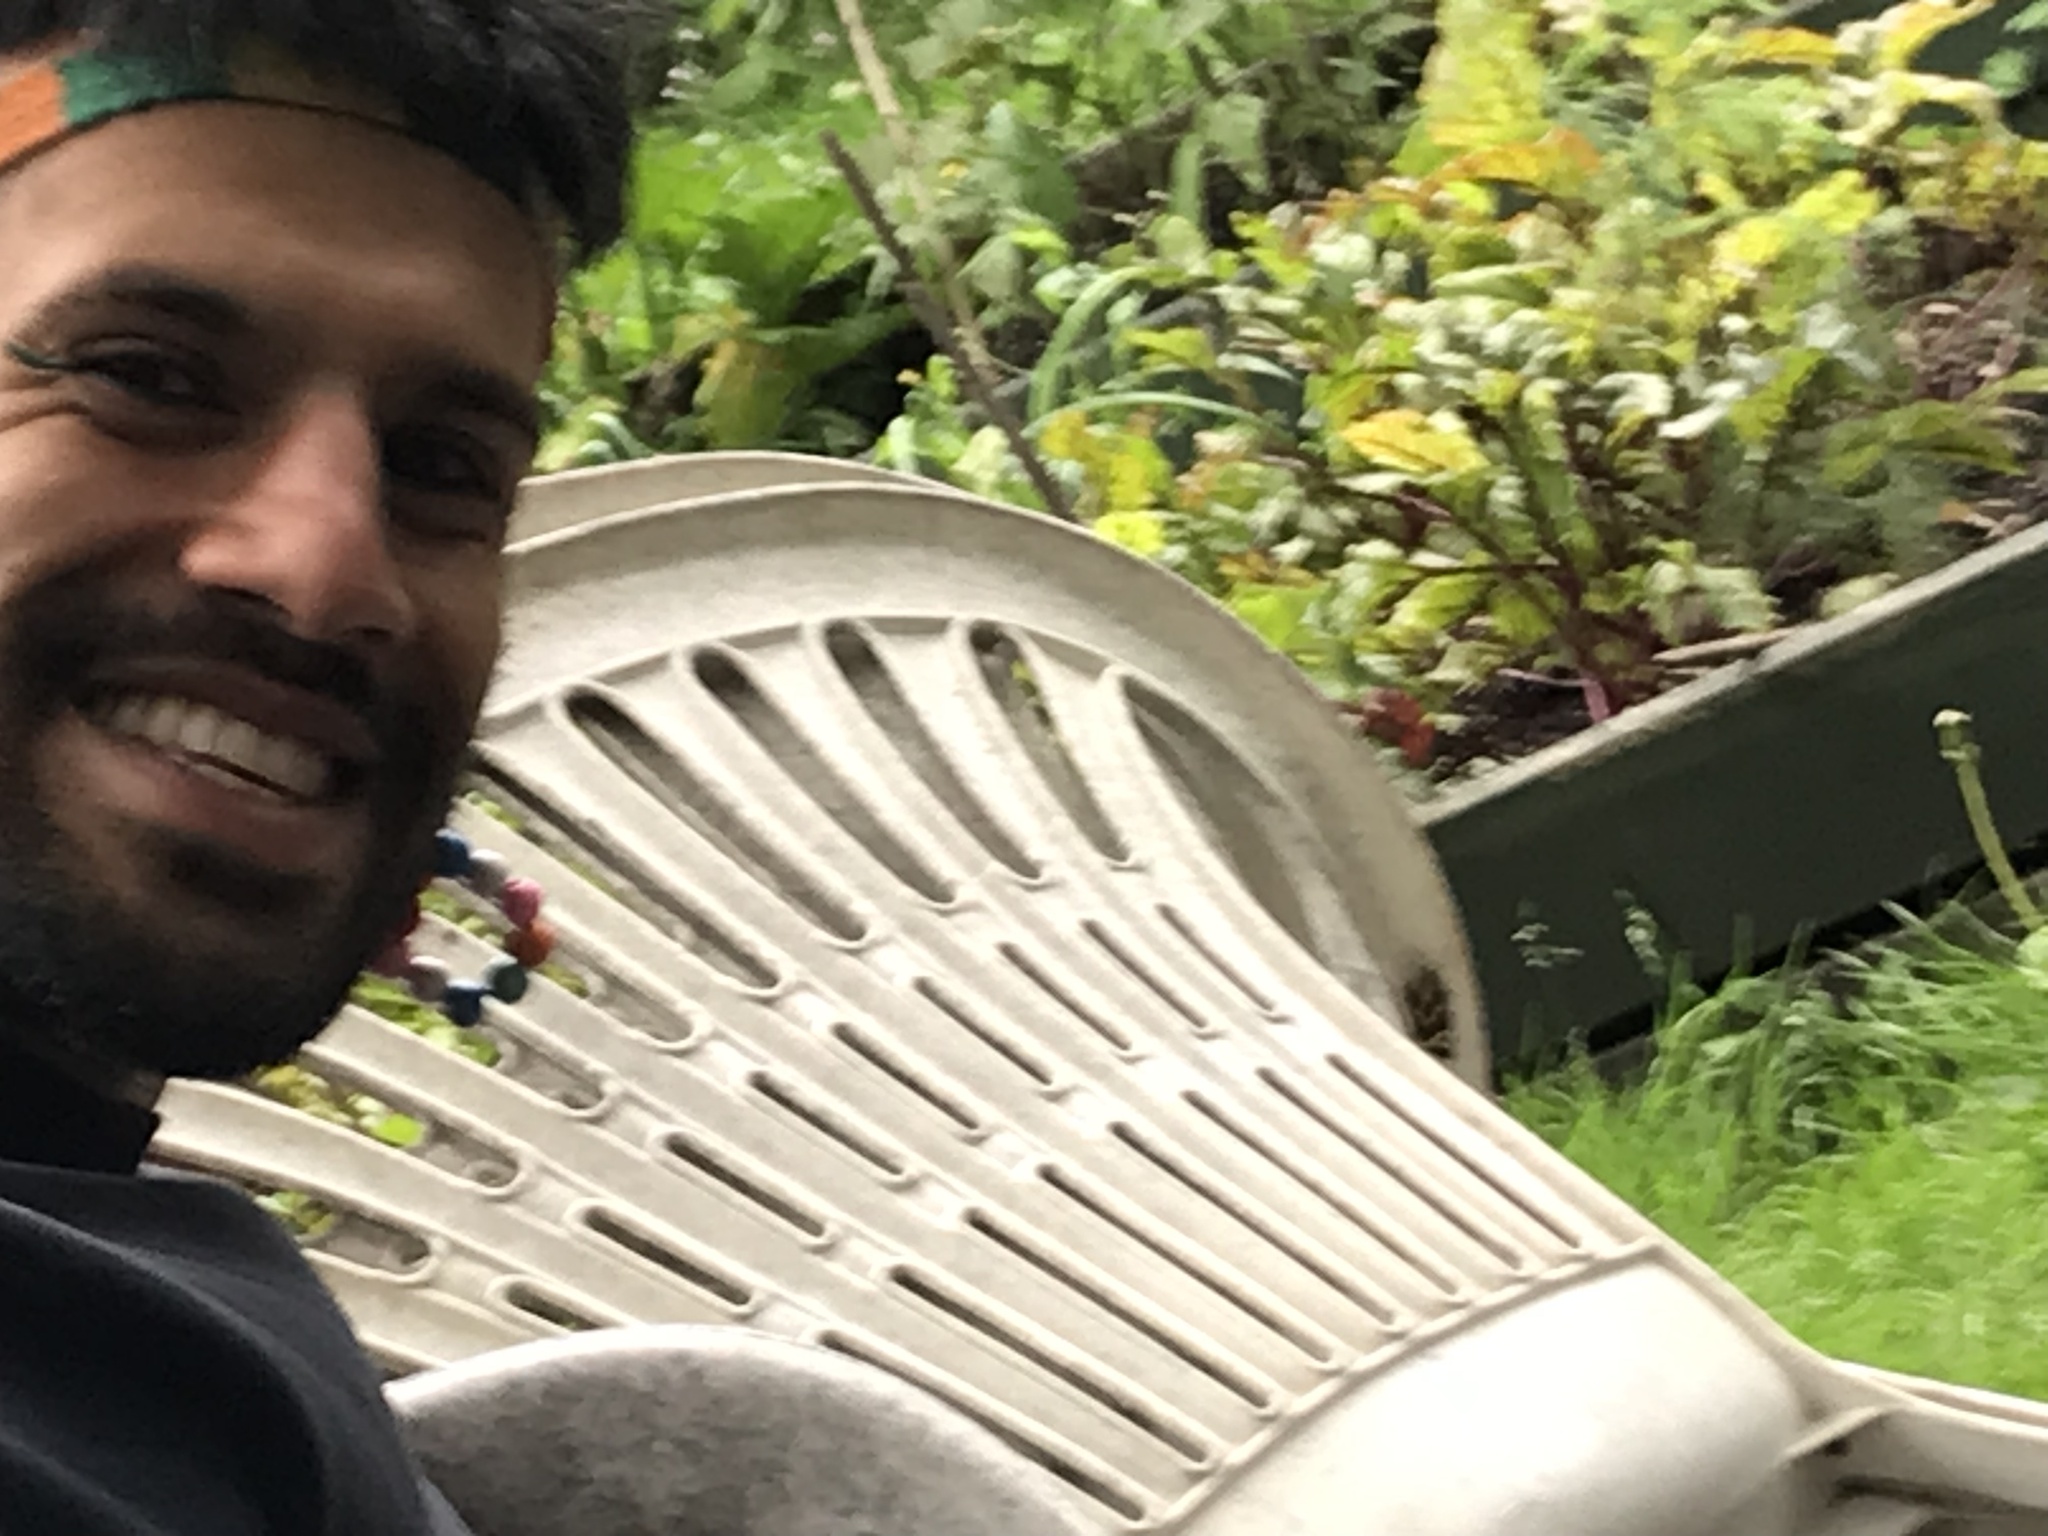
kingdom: Animalia
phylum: Arthropoda
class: Insecta
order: Lepidoptera
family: Erebidae
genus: Euplagia
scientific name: Euplagia quadripunctaria
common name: Jersey tiger
